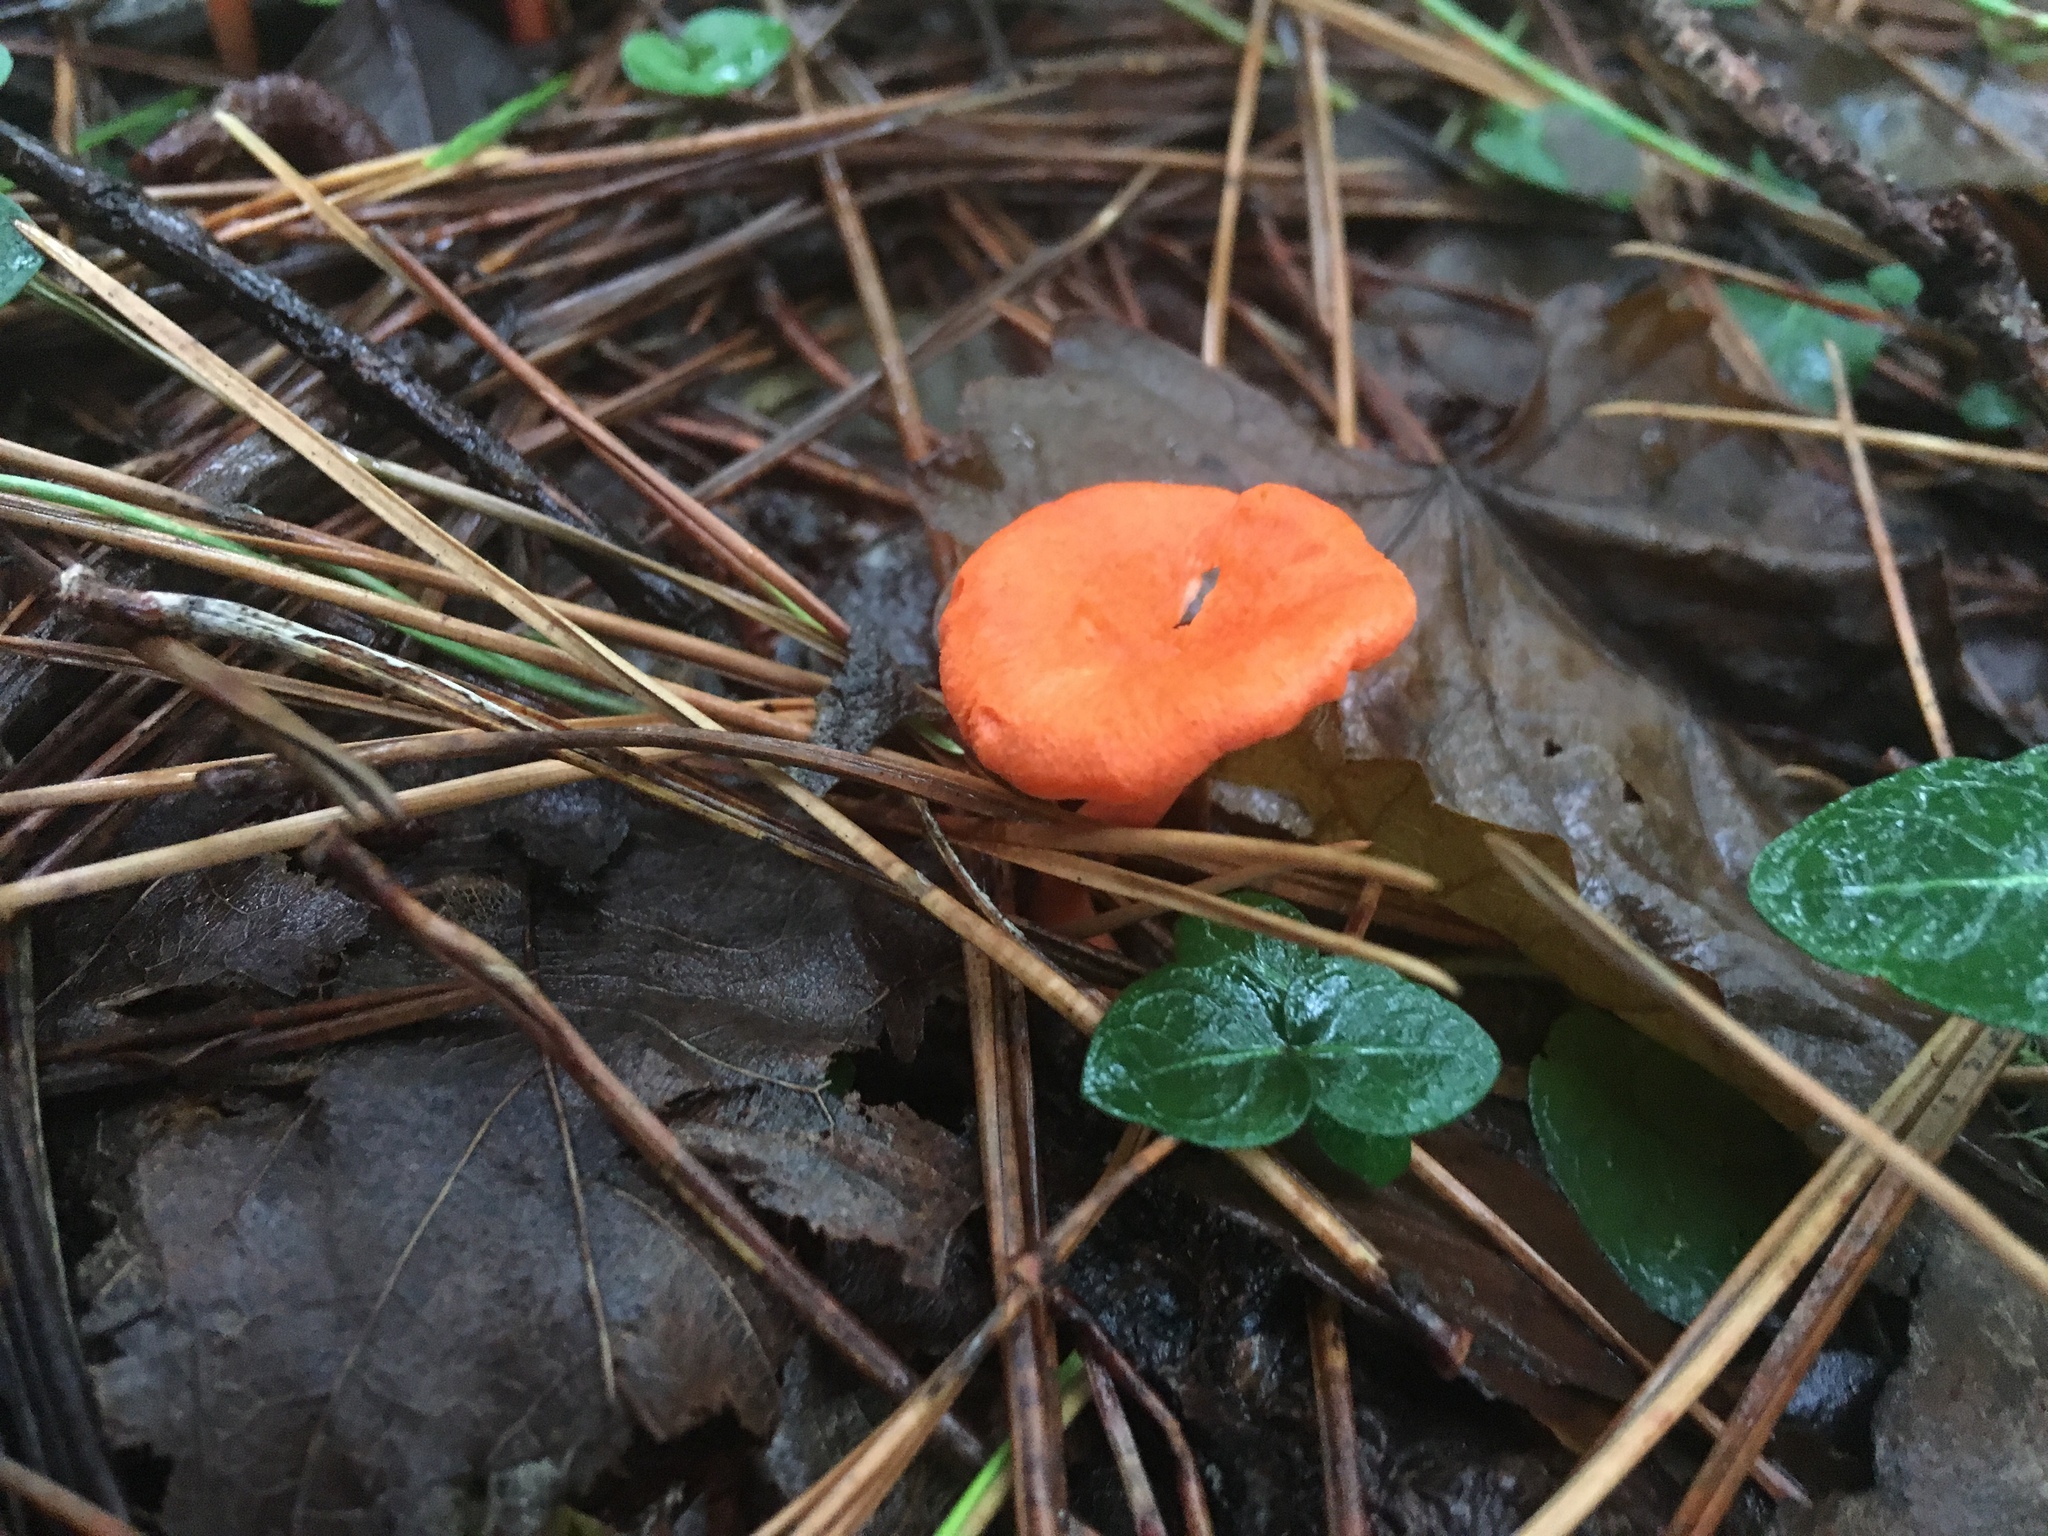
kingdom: Fungi
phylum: Basidiomycota
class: Agaricomycetes
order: Cantharellales
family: Hydnaceae
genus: Cantharellus
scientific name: Cantharellus cinnabarinus
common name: Cinnabar chanterelle
